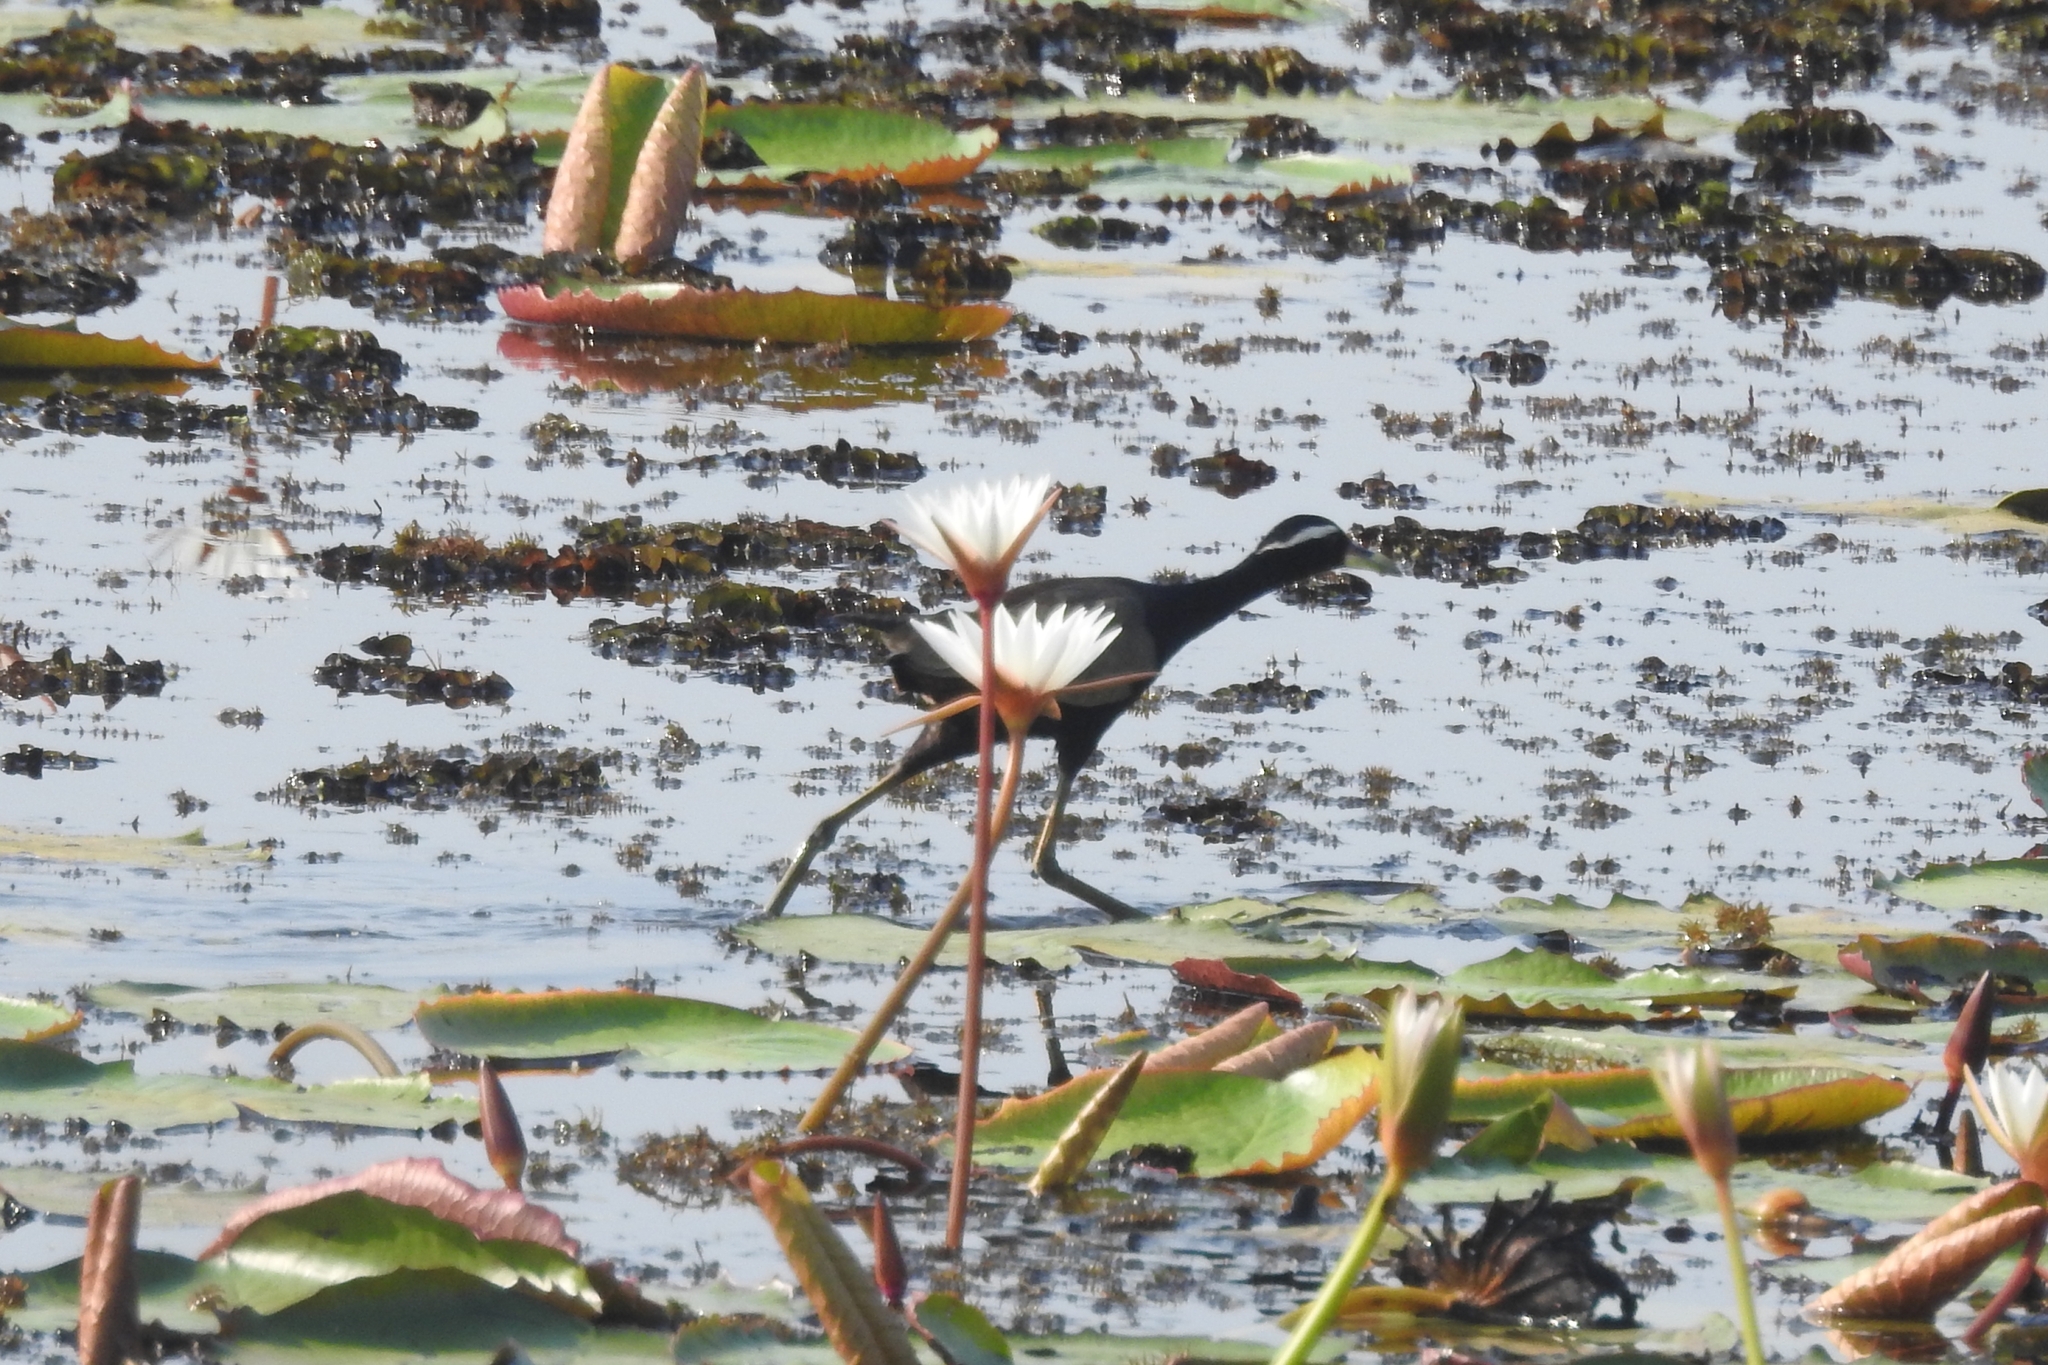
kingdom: Animalia
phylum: Chordata
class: Aves
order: Charadriiformes
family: Jacanidae
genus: Metopidius
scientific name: Metopidius indicus
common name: Bronze-winged jacana
